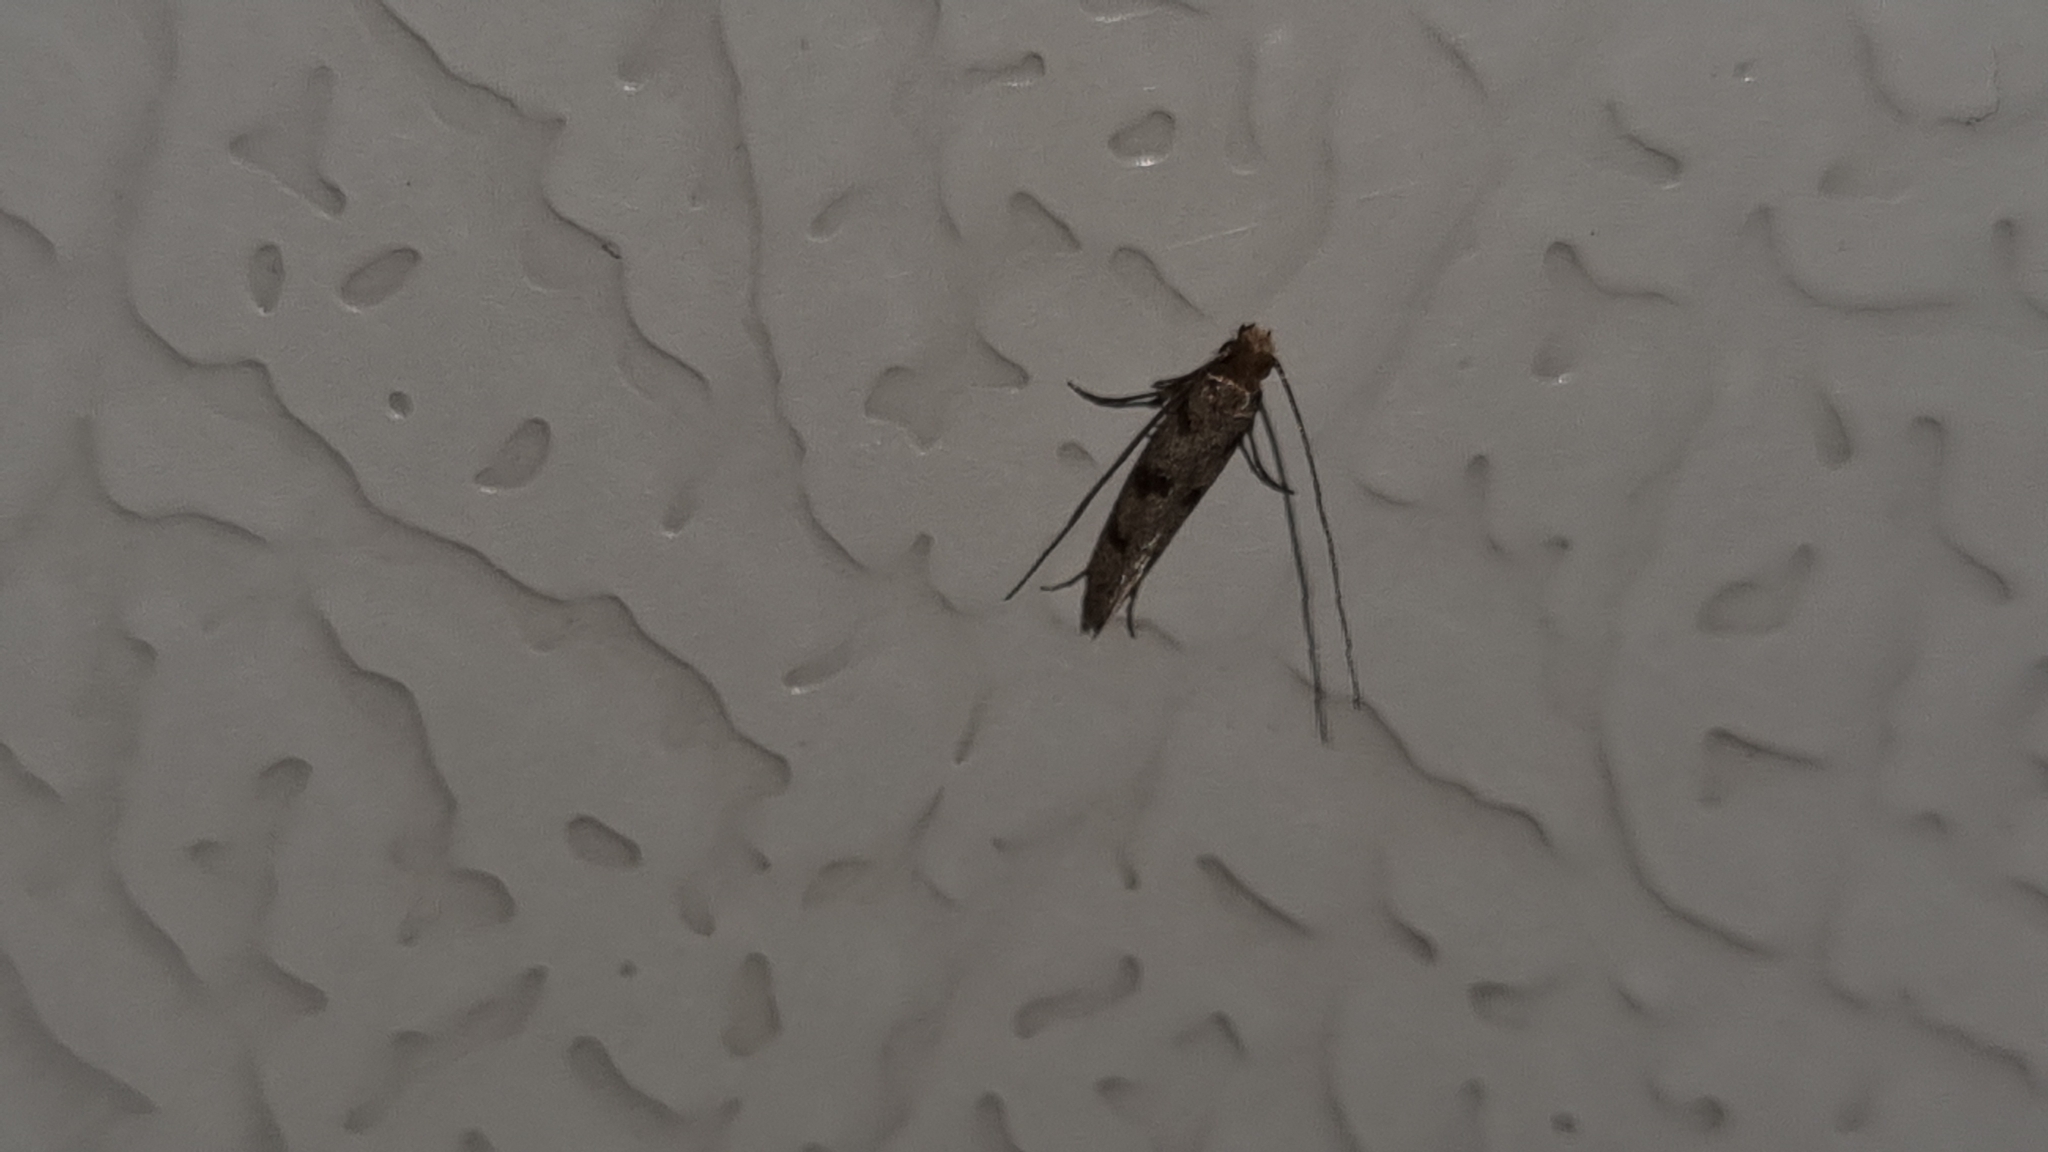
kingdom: Animalia
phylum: Arthropoda
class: Insecta
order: Lepidoptera
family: Tineidae
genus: Phereoeca
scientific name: Phereoeca uterella
